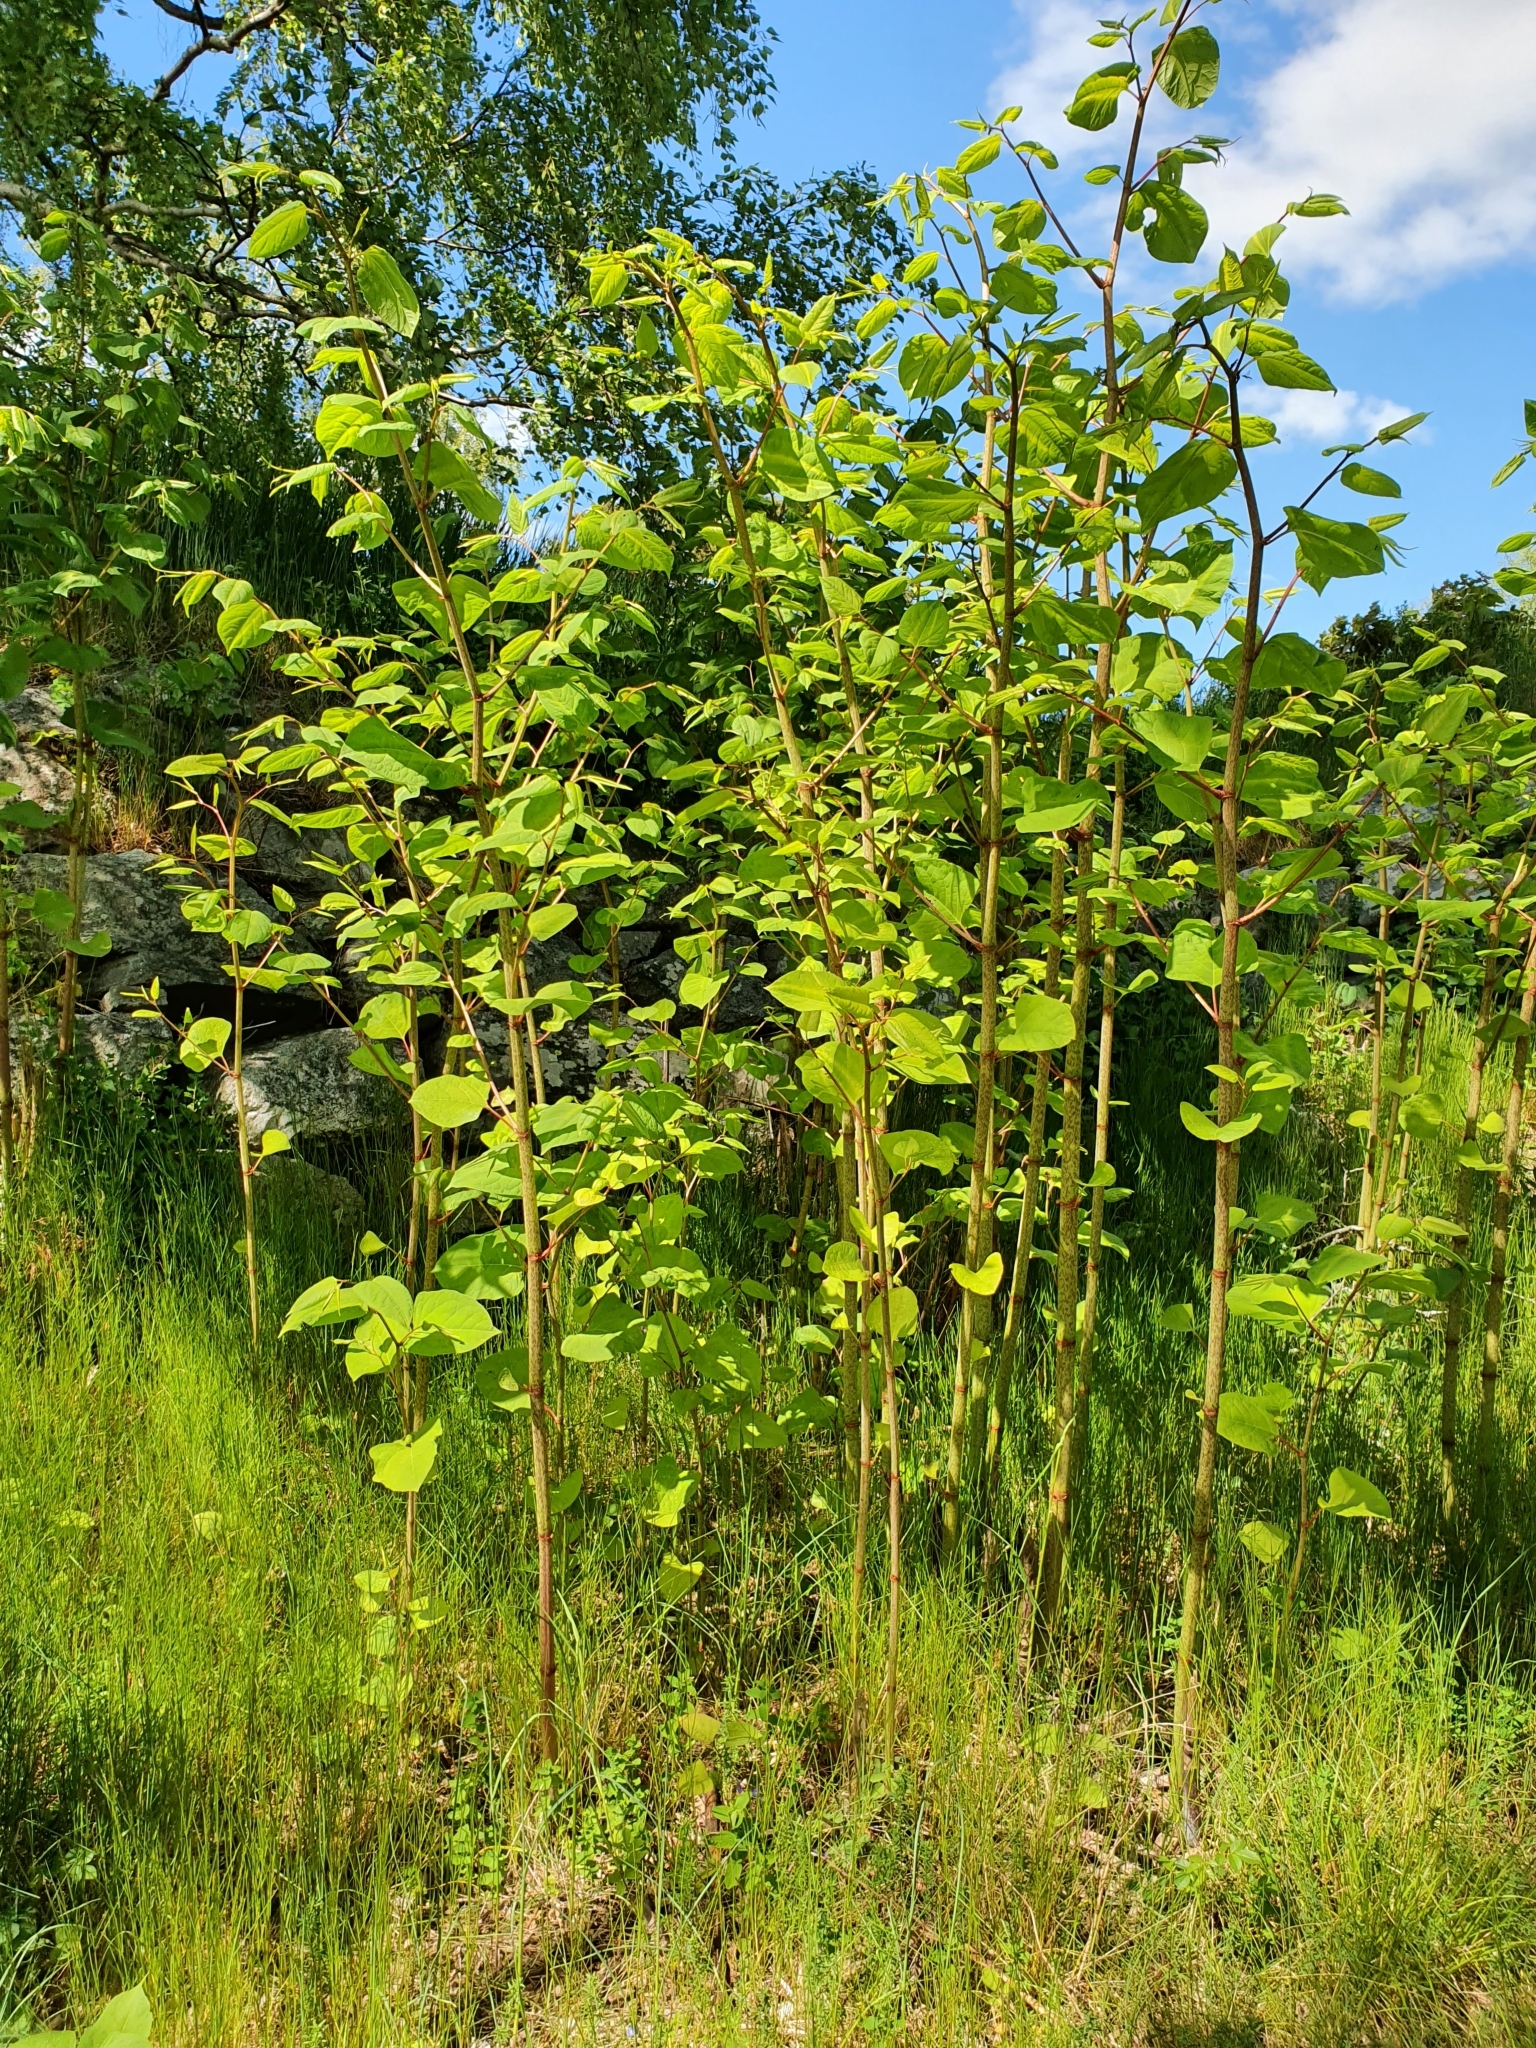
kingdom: Plantae
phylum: Tracheophyta
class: Magnoliopsida
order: Caryophyllales
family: Polygonaceae
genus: Reynoutria
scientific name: Reynoutria japonica
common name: Japanese knotweed
